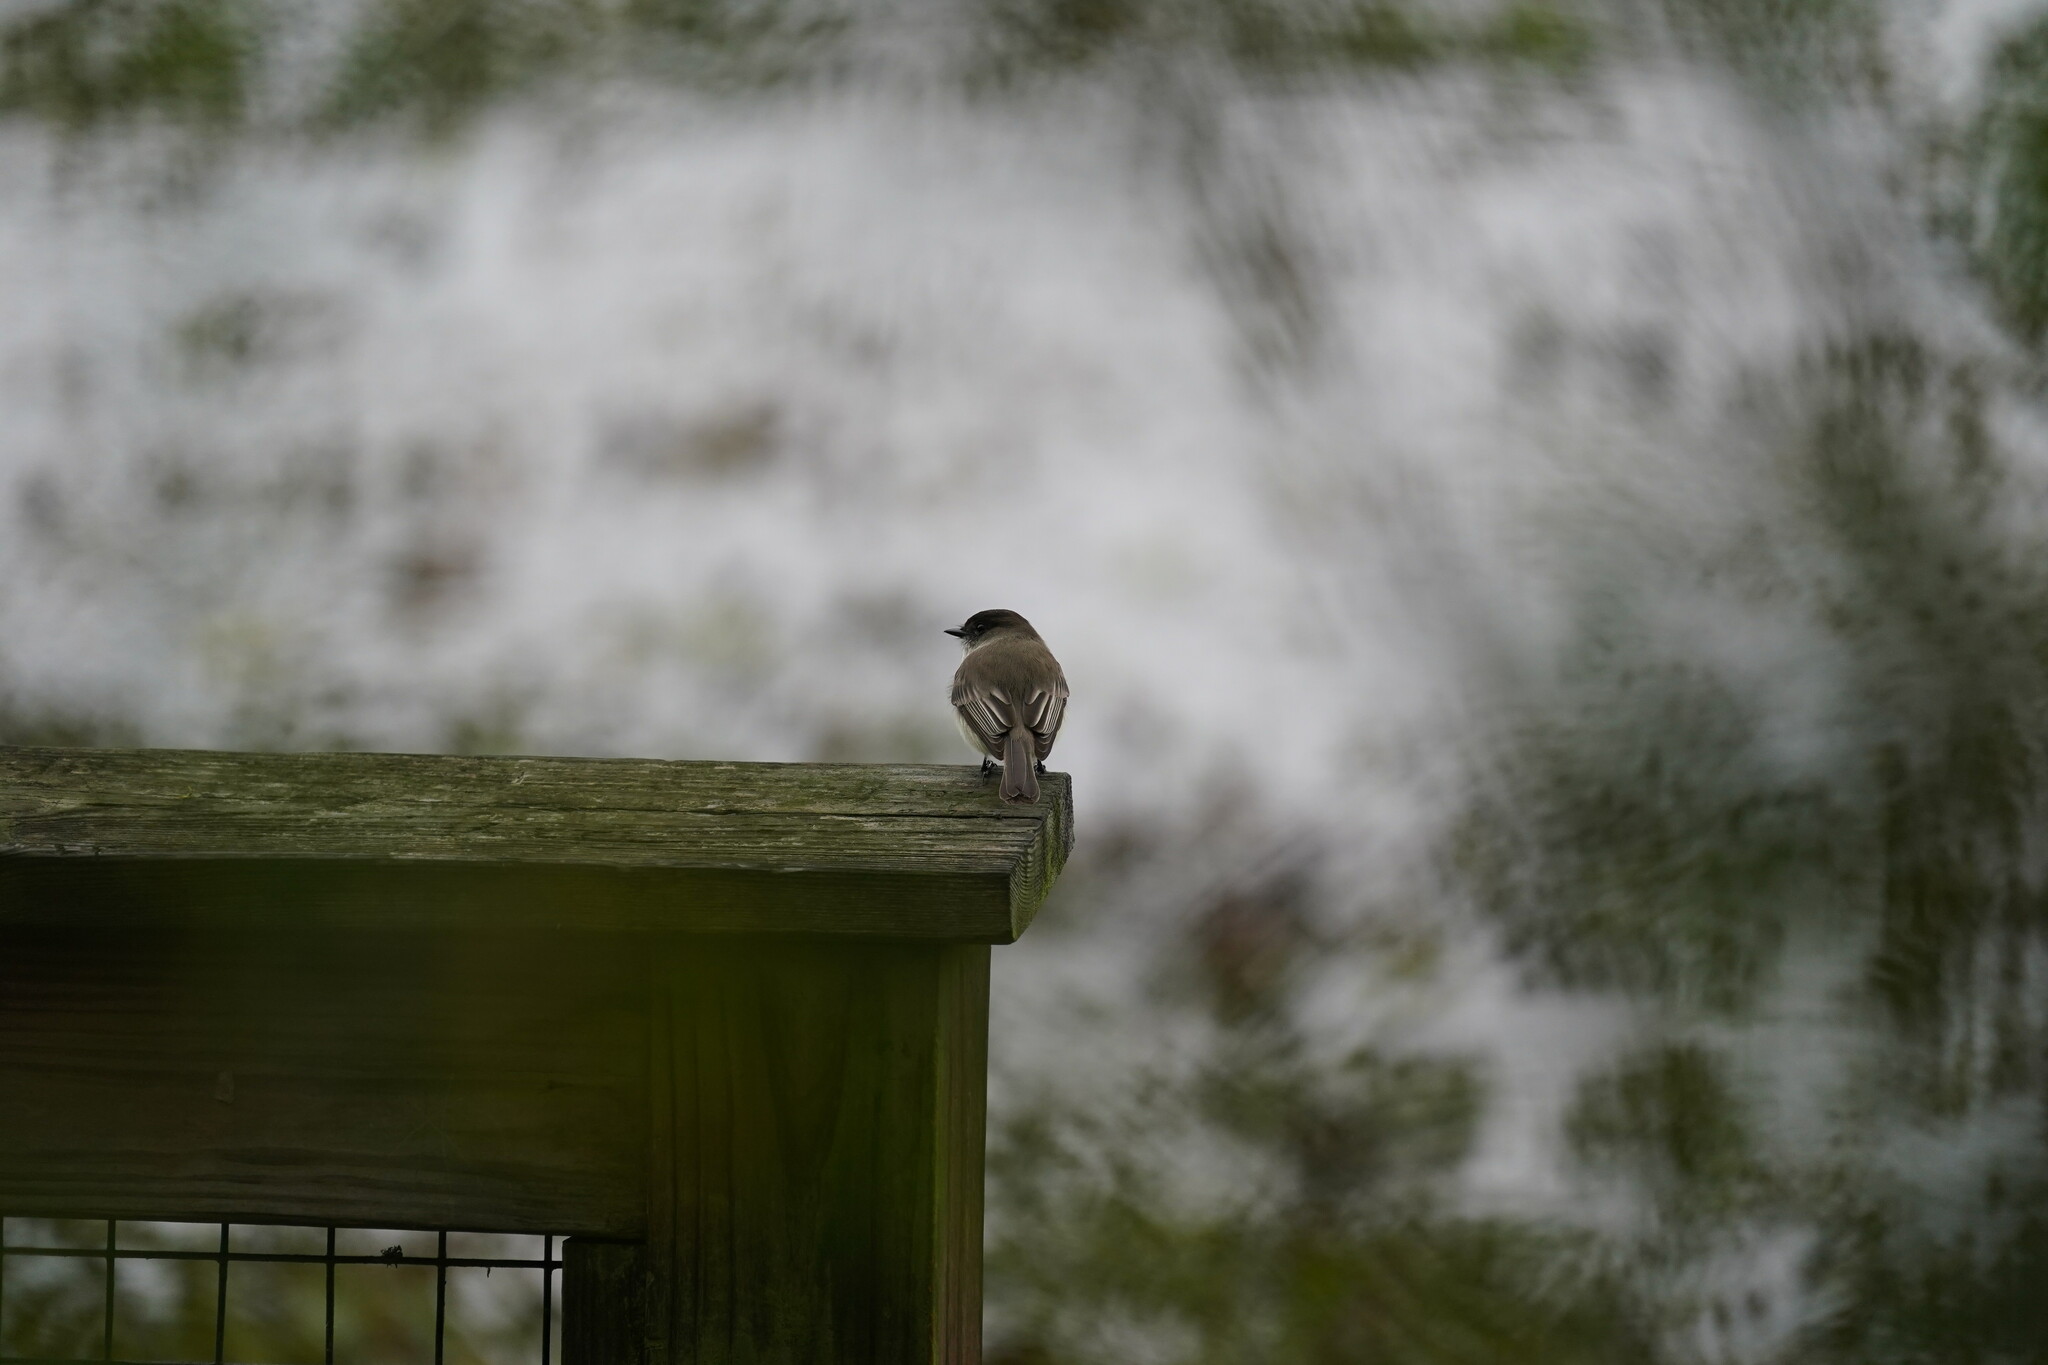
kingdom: Animalia
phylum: Chordata
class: Aves
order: Passeriformes
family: Tyrannidae
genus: Sayornis
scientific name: Sayornis phoebe
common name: Eastern phoebe
